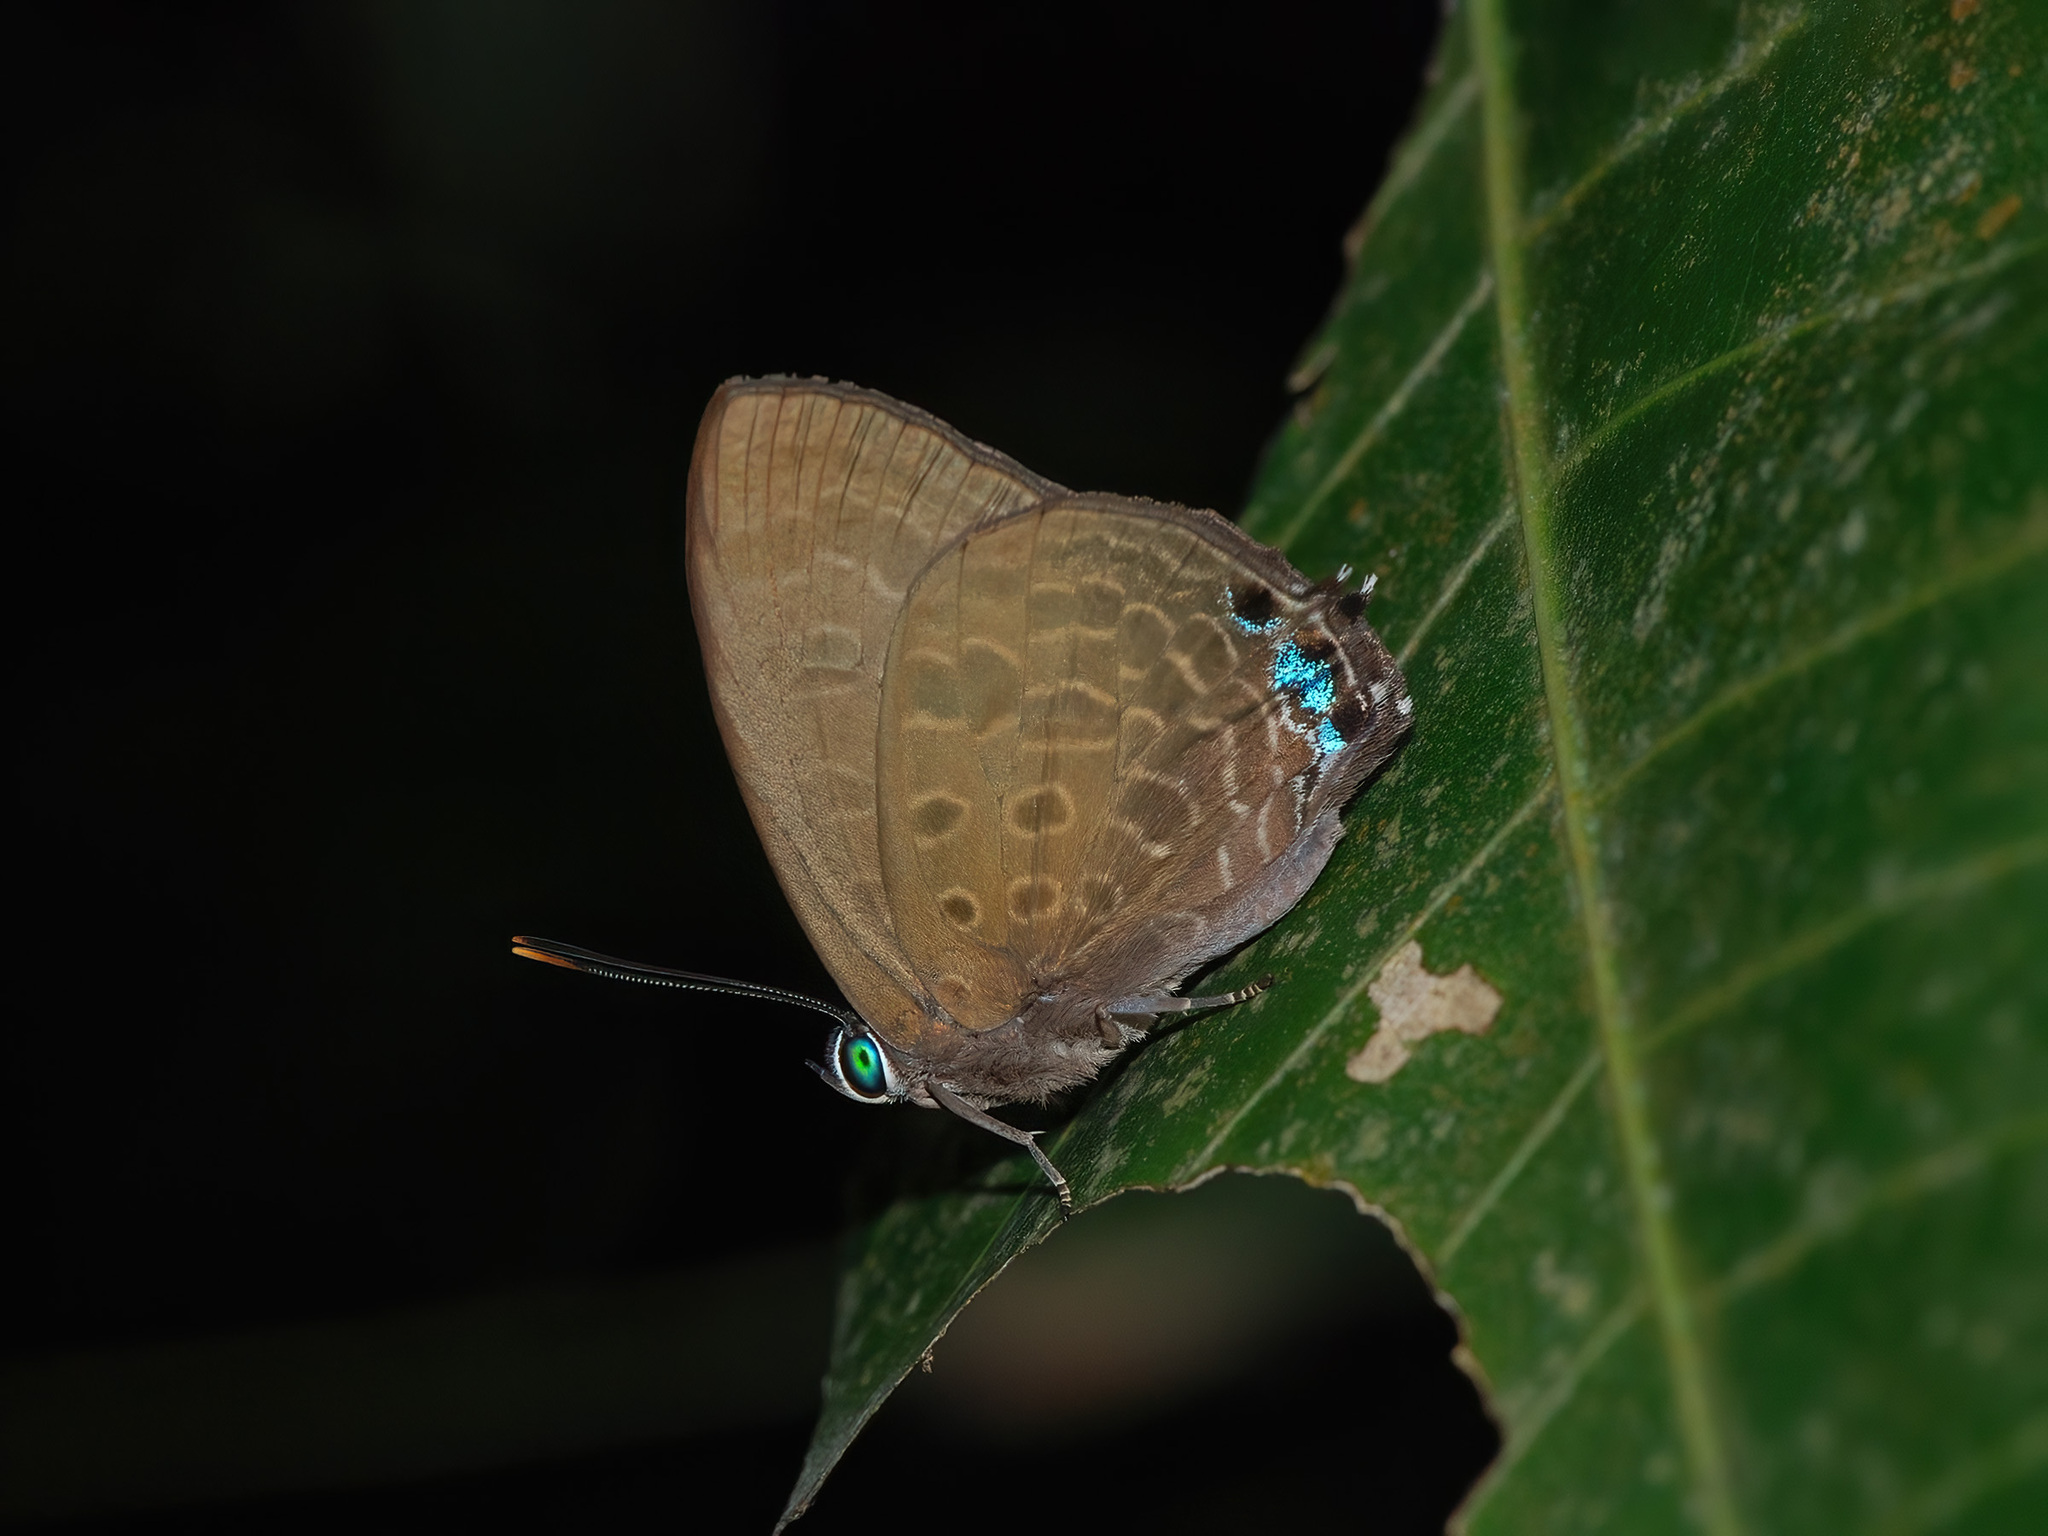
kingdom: Animalia
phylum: Arthropoda
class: Insecta
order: Lepidoptera
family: Lycaenidae
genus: Arhopala
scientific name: Arhopala aurea
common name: Long-celled oakblue
